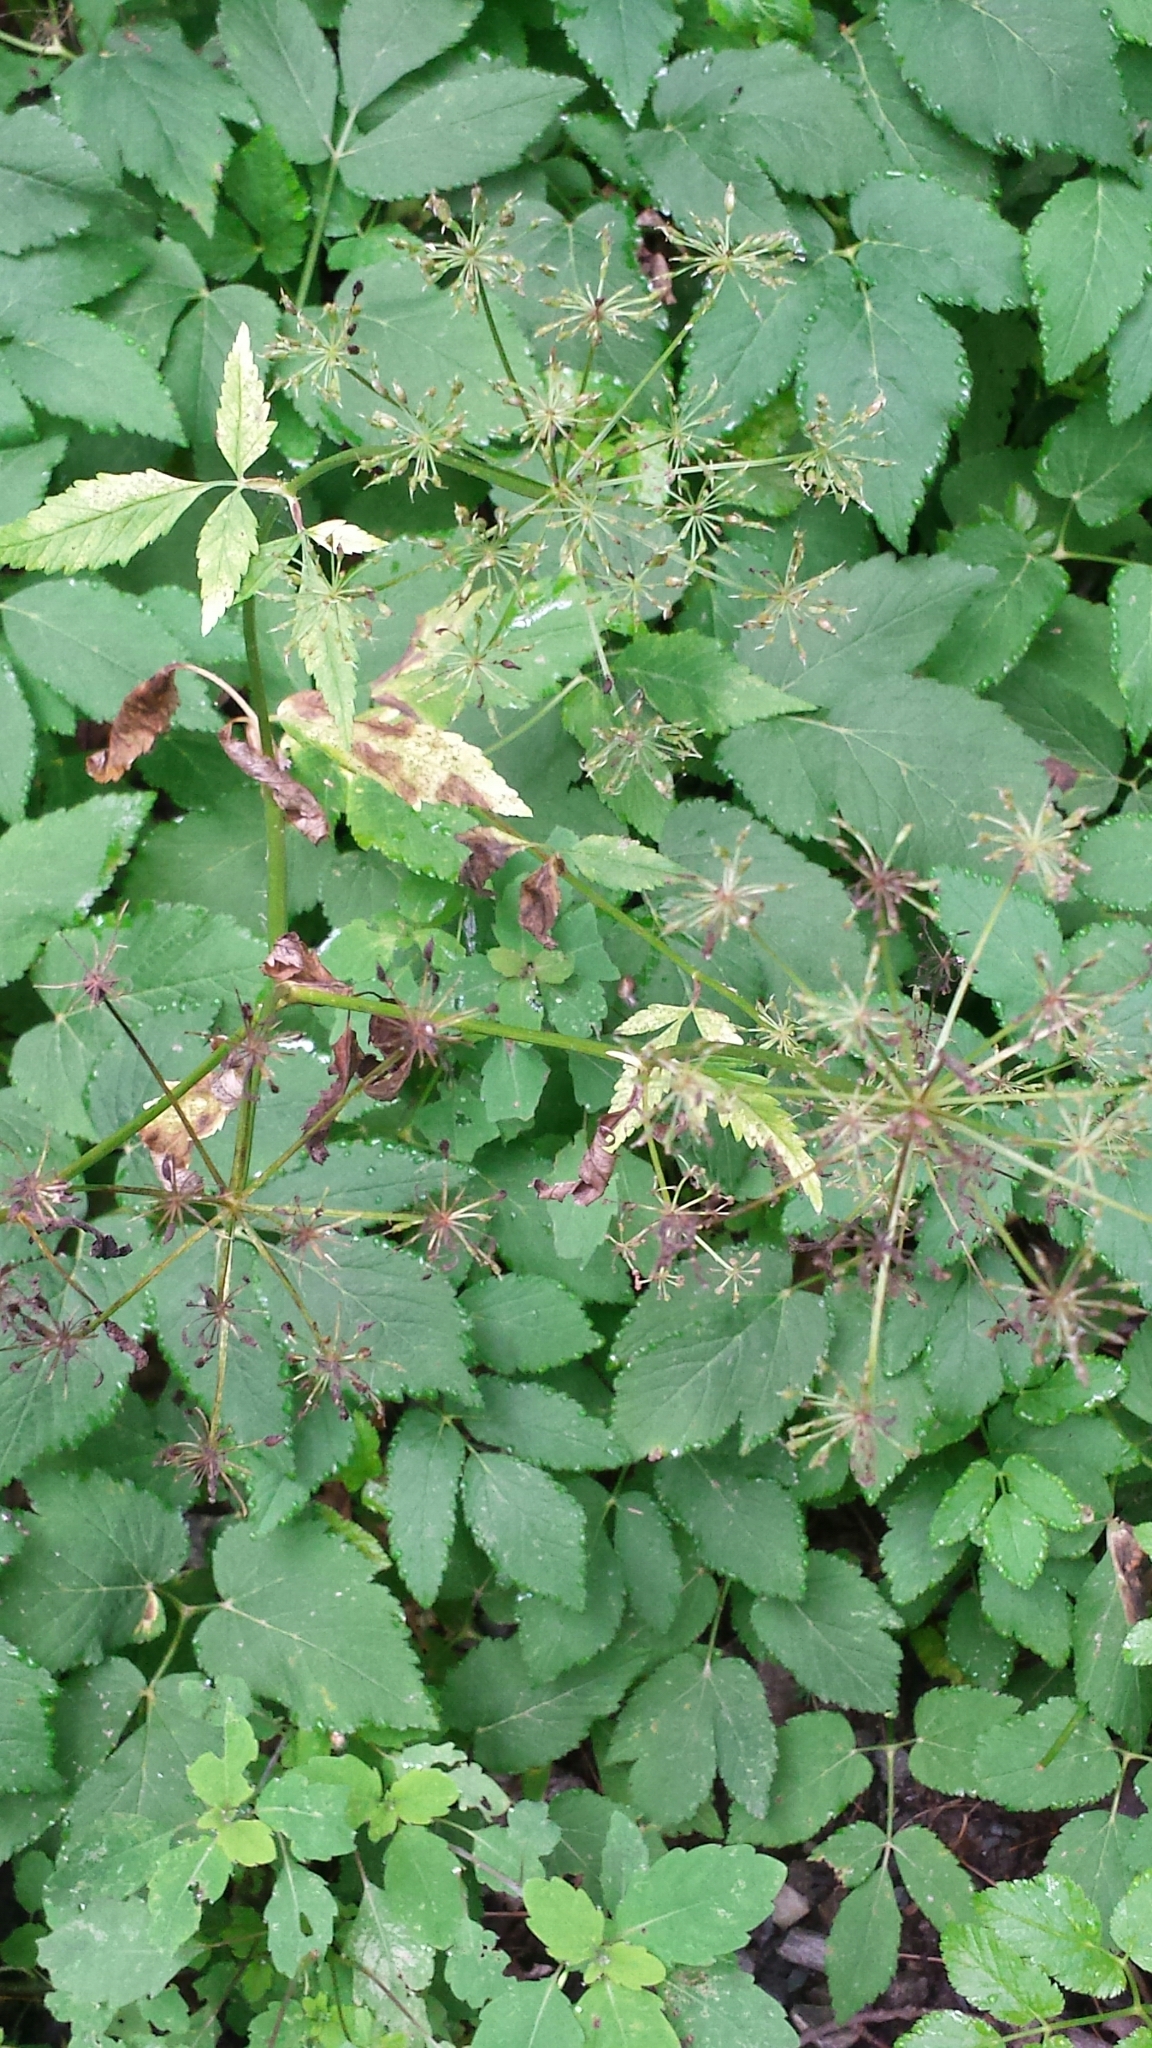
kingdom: Plantae
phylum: Tracheophyta
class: Magnoliopsida
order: Apiales
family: Apiaceae
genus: Aegopodium
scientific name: Aegopodium podagraria
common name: Ground-elder
